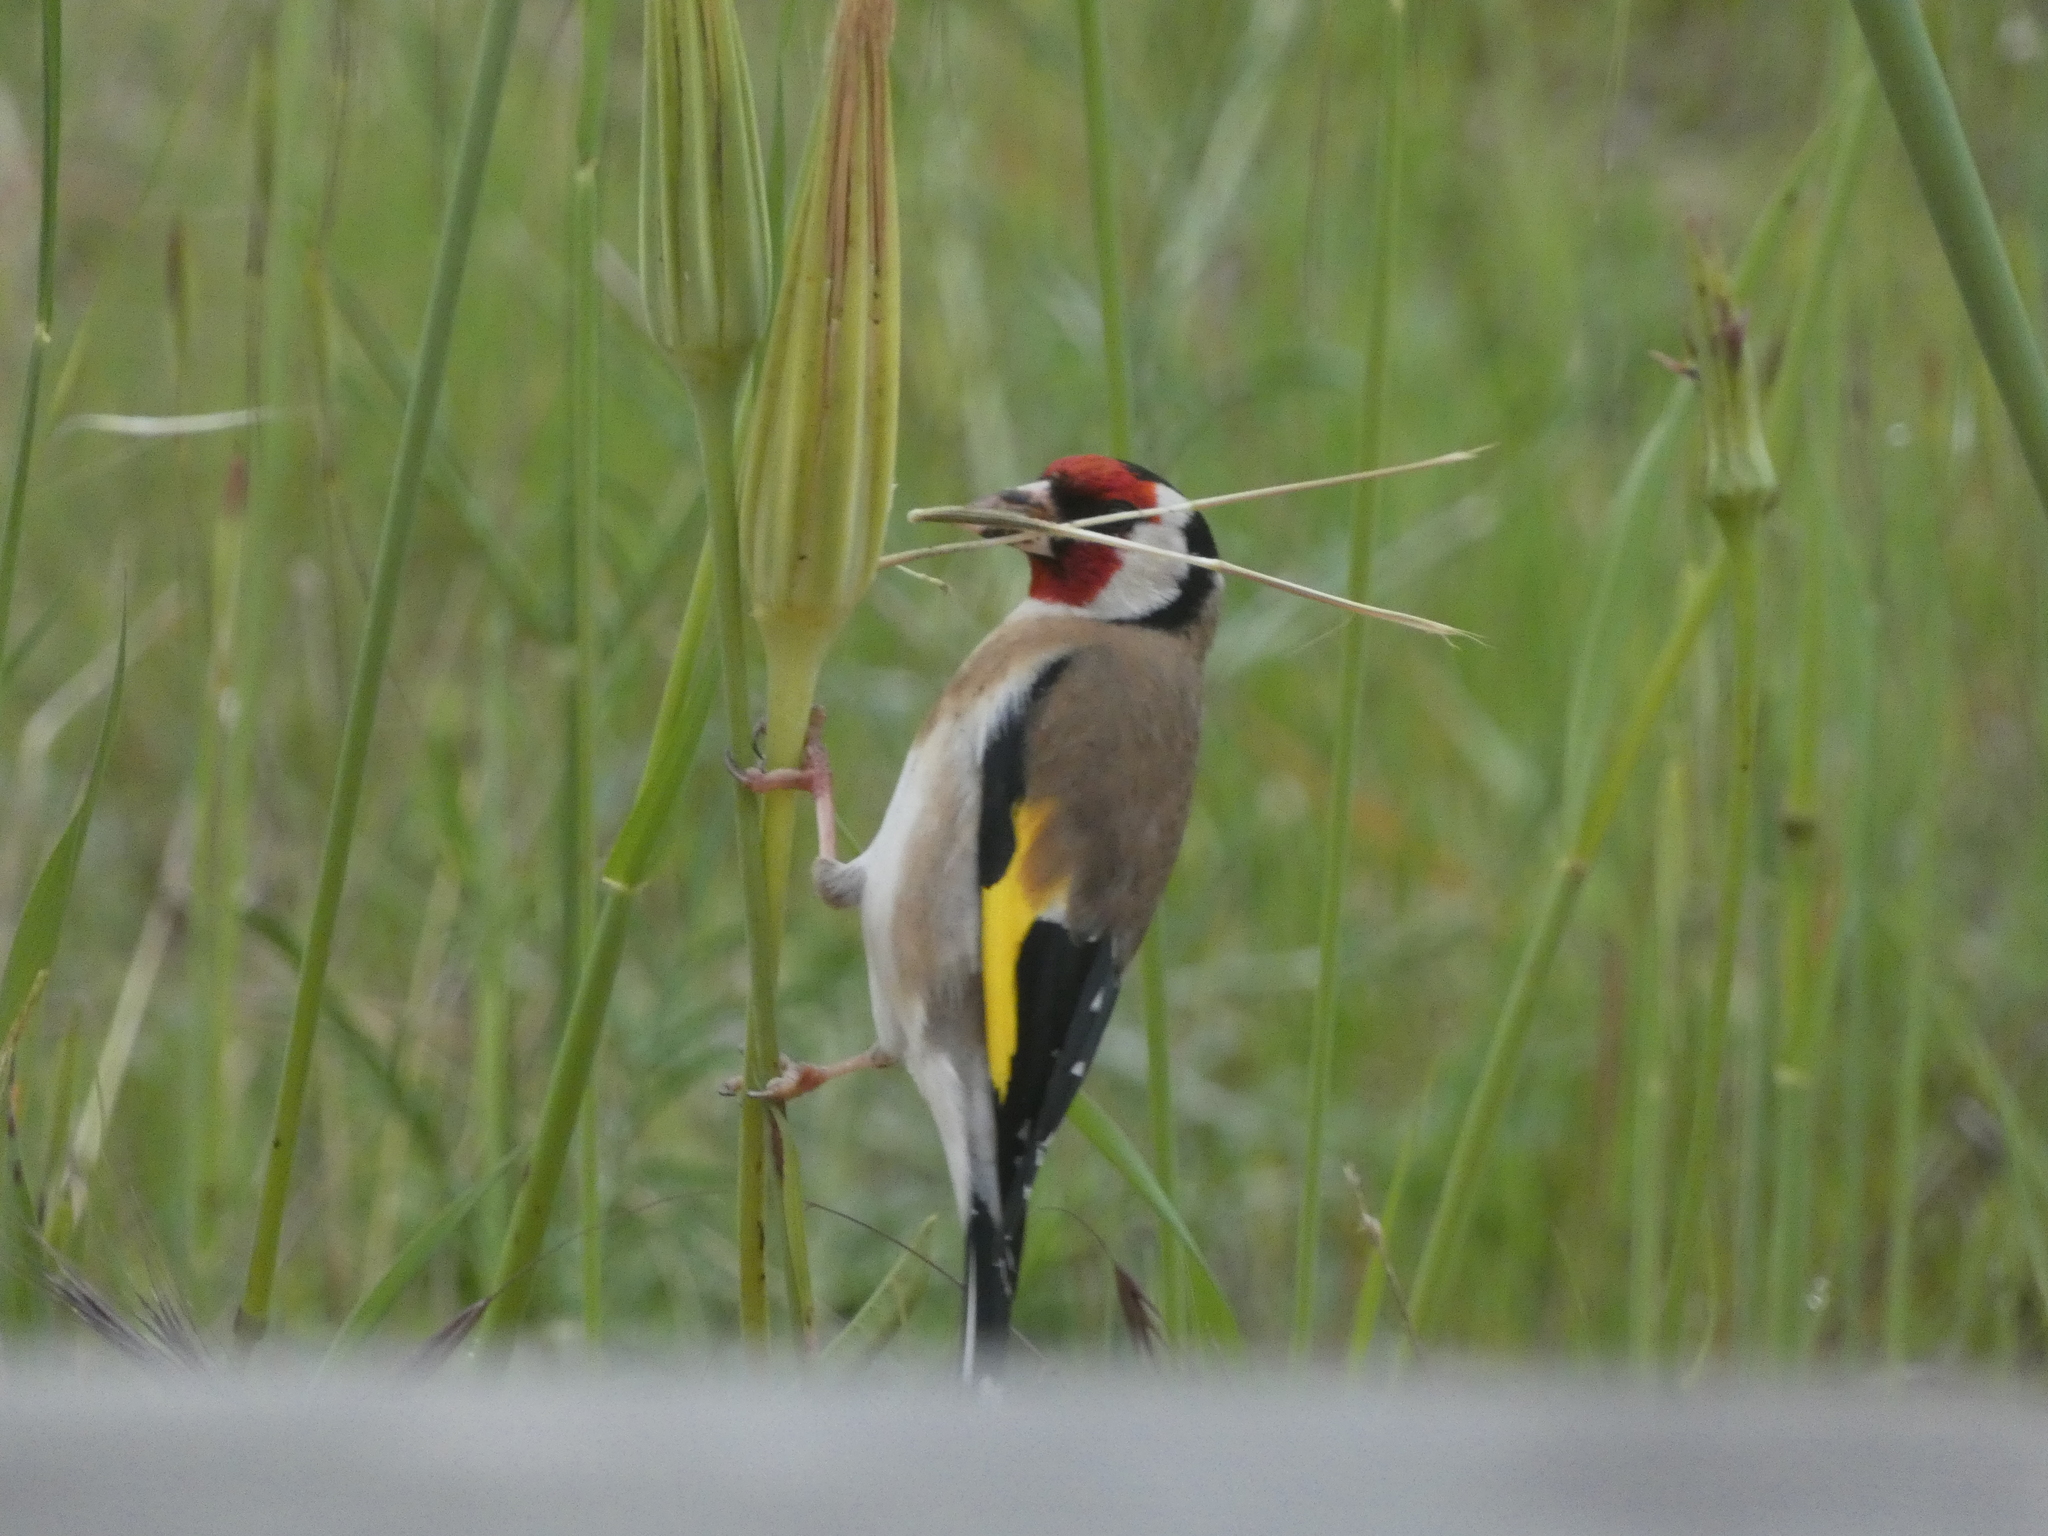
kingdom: Animalia
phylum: Chordata
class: Aves
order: Passeriformes
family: Fringillidae
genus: Carduelis
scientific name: Carduelis carduelis
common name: European goldfinch
